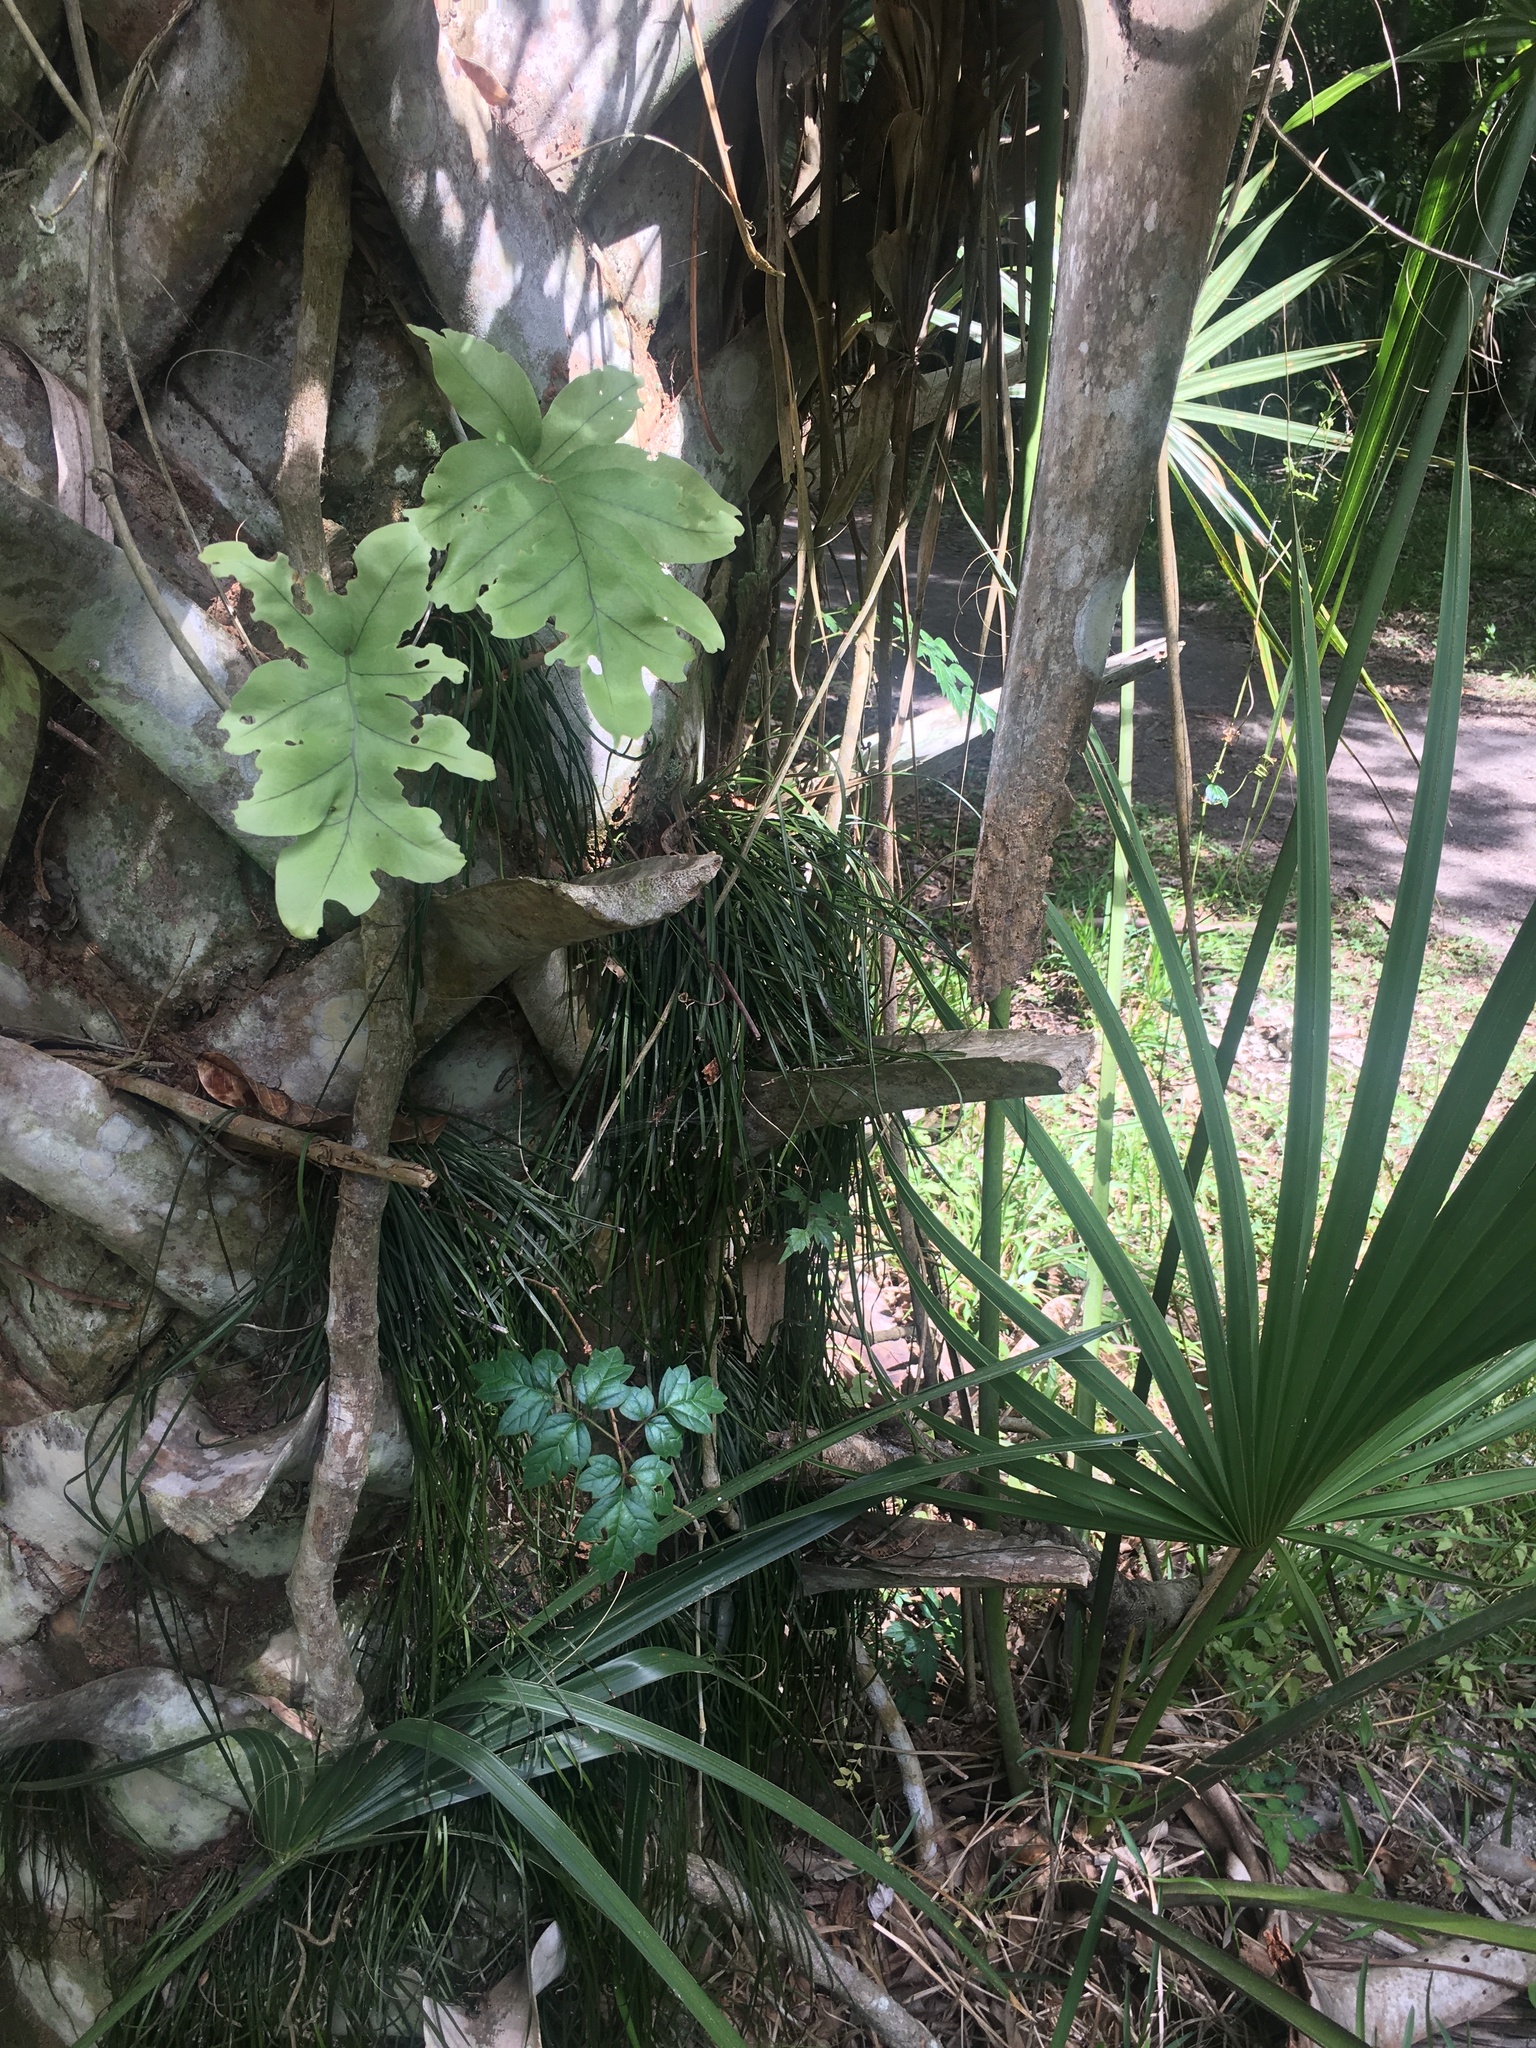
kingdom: Plantae
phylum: Tracheophyta
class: Polypodiopsida
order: Polypodiales
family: Pteridaceae
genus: Vittaria
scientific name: Vittaria lineata
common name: Shoestring fern
